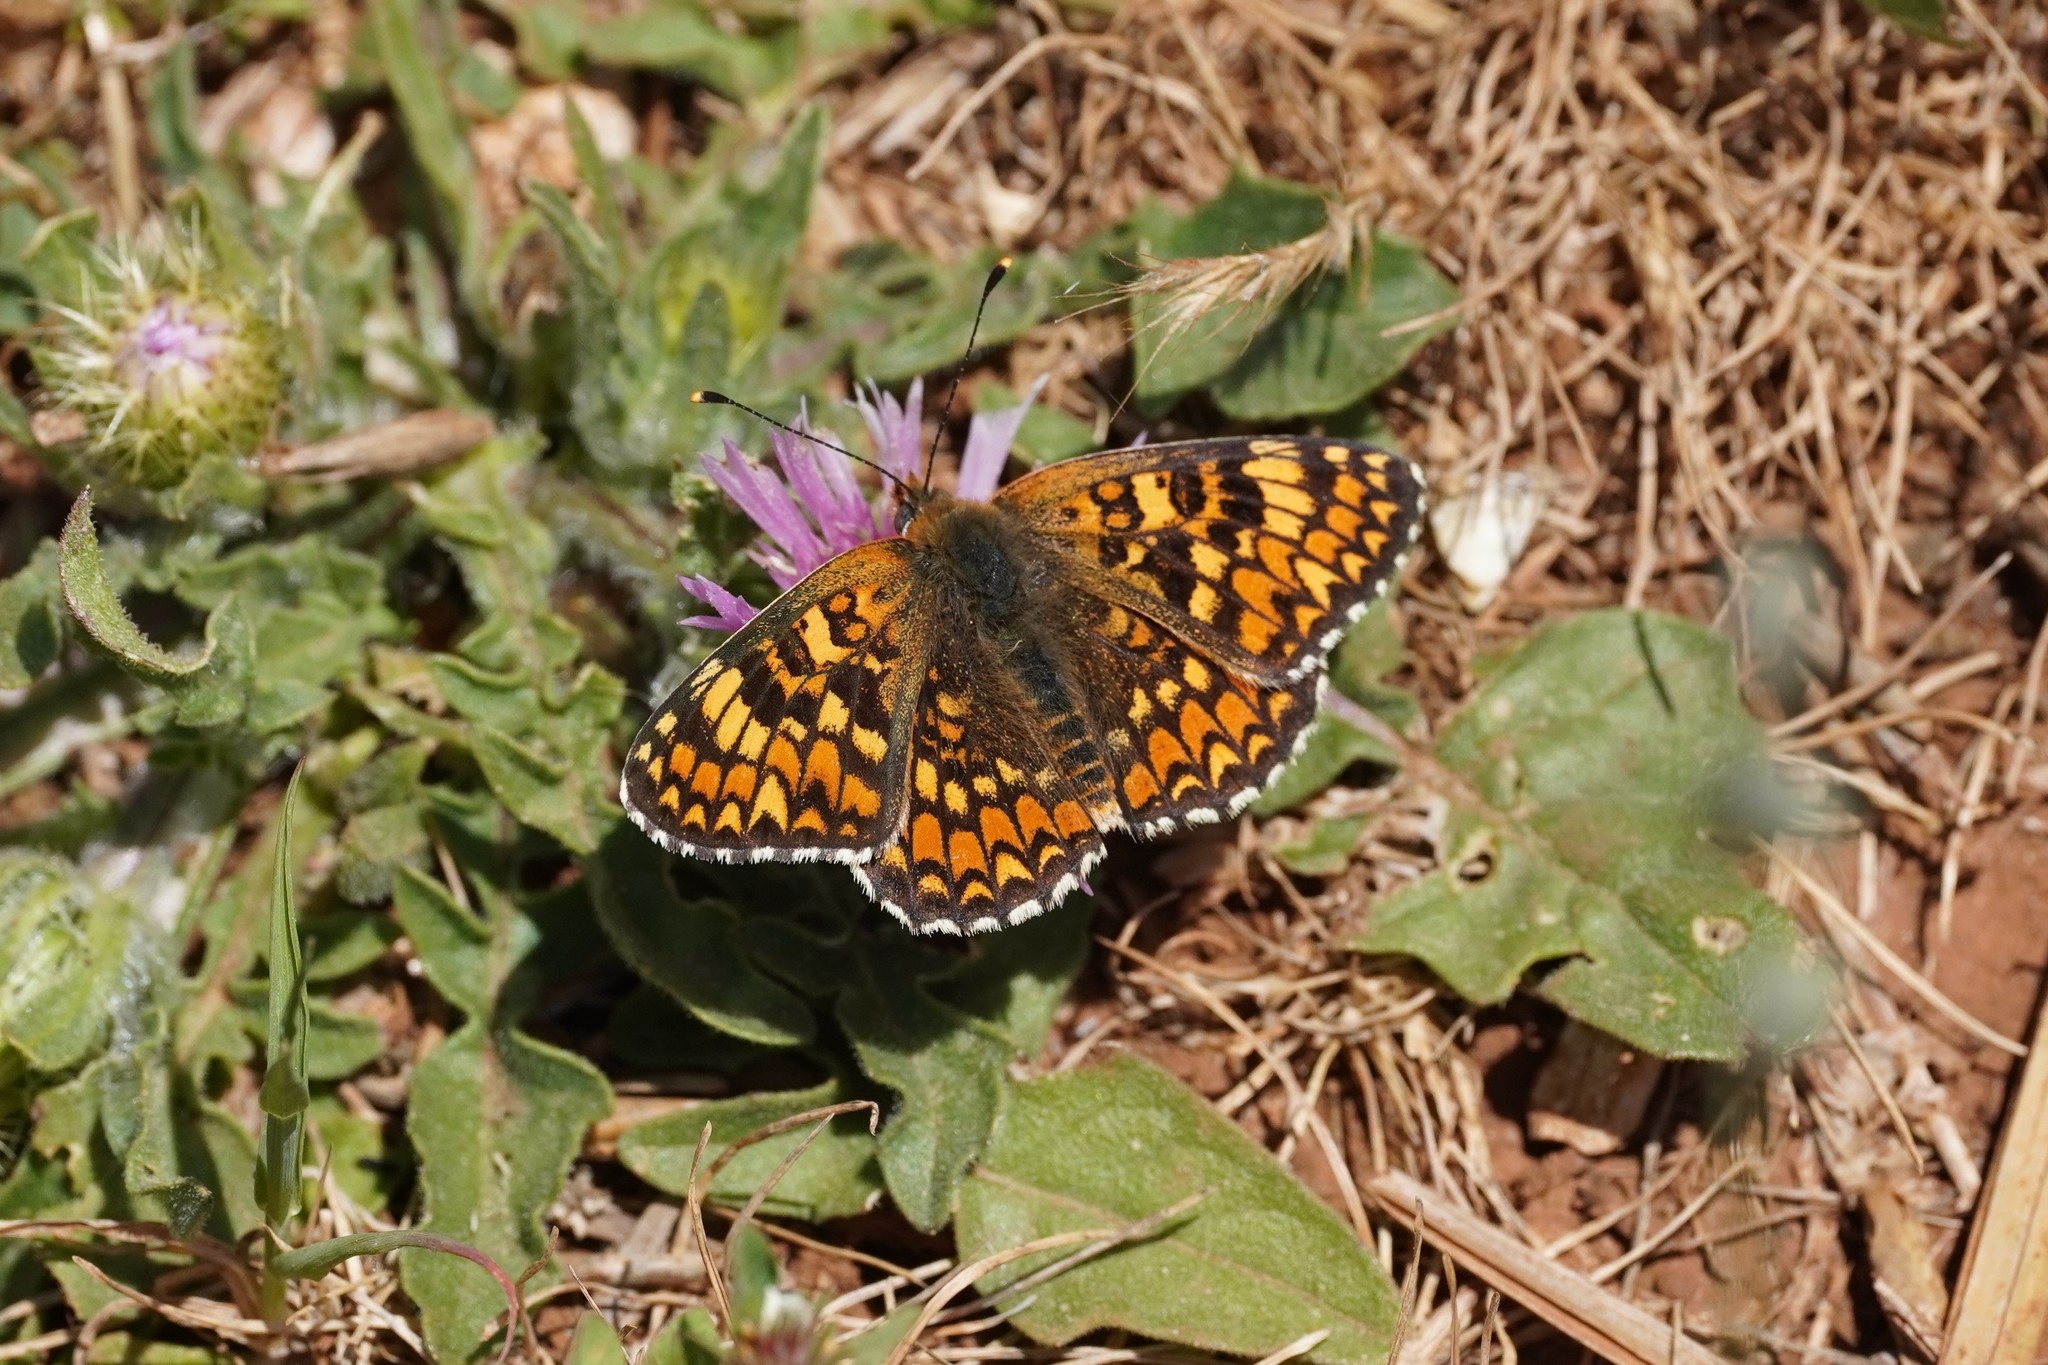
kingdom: Animalia
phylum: Arthropoda
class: Insecta
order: Lepidoptera
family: Nymphalidae
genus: Melitaea
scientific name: Melitaea phoebe
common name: Knapweed fritillary
